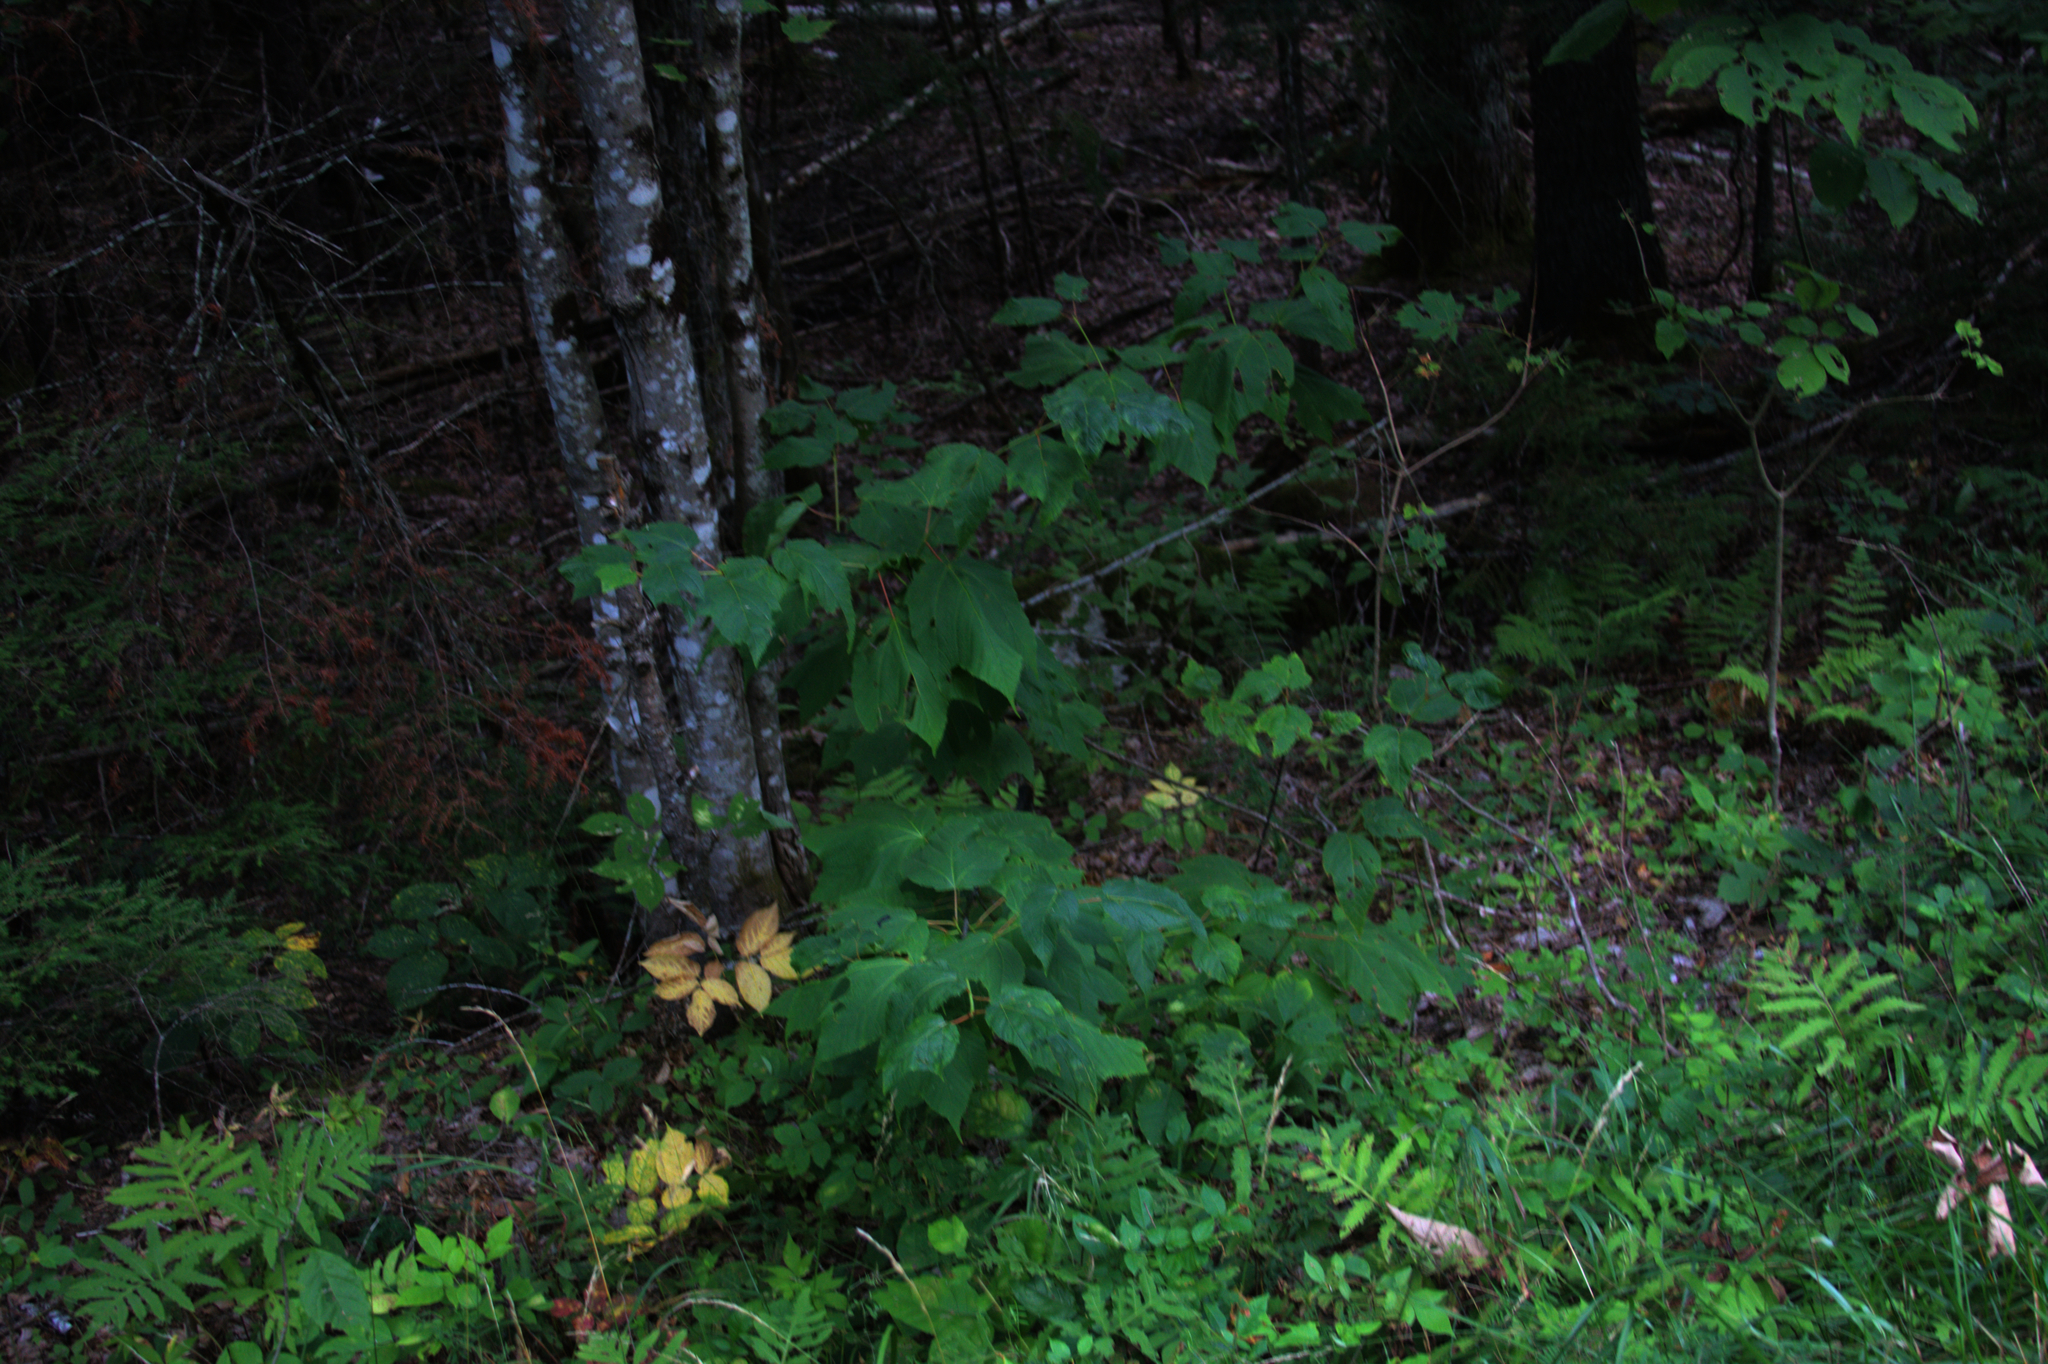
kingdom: Plantae
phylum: Tracheophyta
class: Magnoliopsida
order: Sapindales
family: Sapindaceae
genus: Acer
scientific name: Acer pensylvanicum
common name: Moosewood
